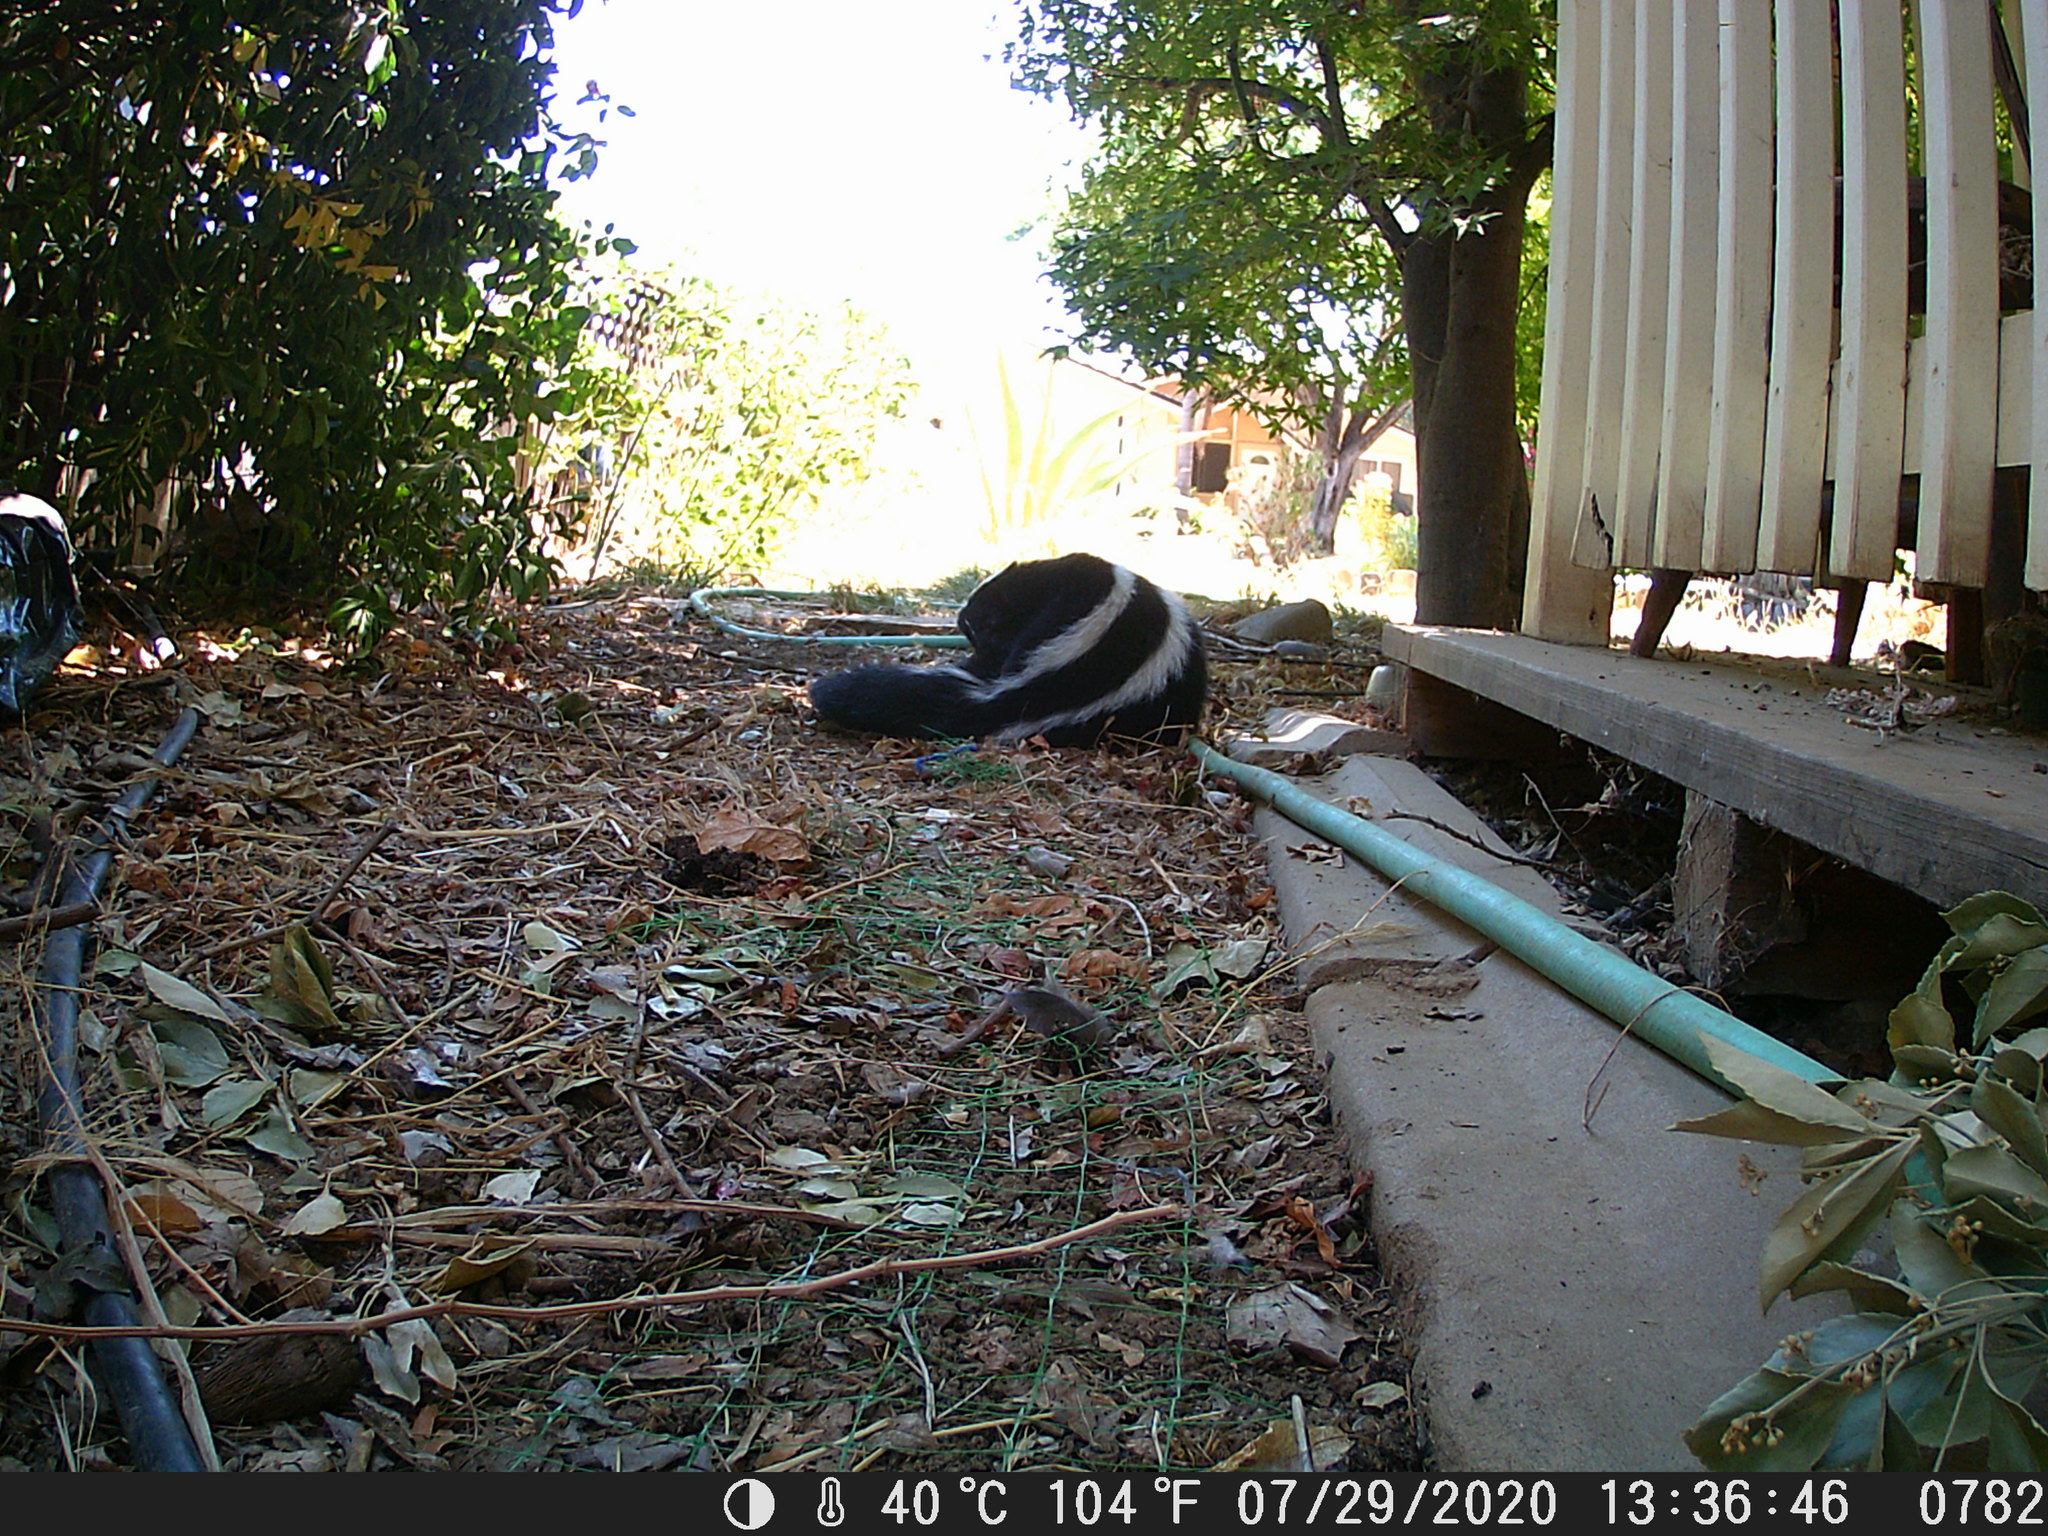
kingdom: Animalia
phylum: Chordata
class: Mammalia
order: Carnivora
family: Mephitidae
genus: Mephitis
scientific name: Mephitis mephitis
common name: Striped skunk
